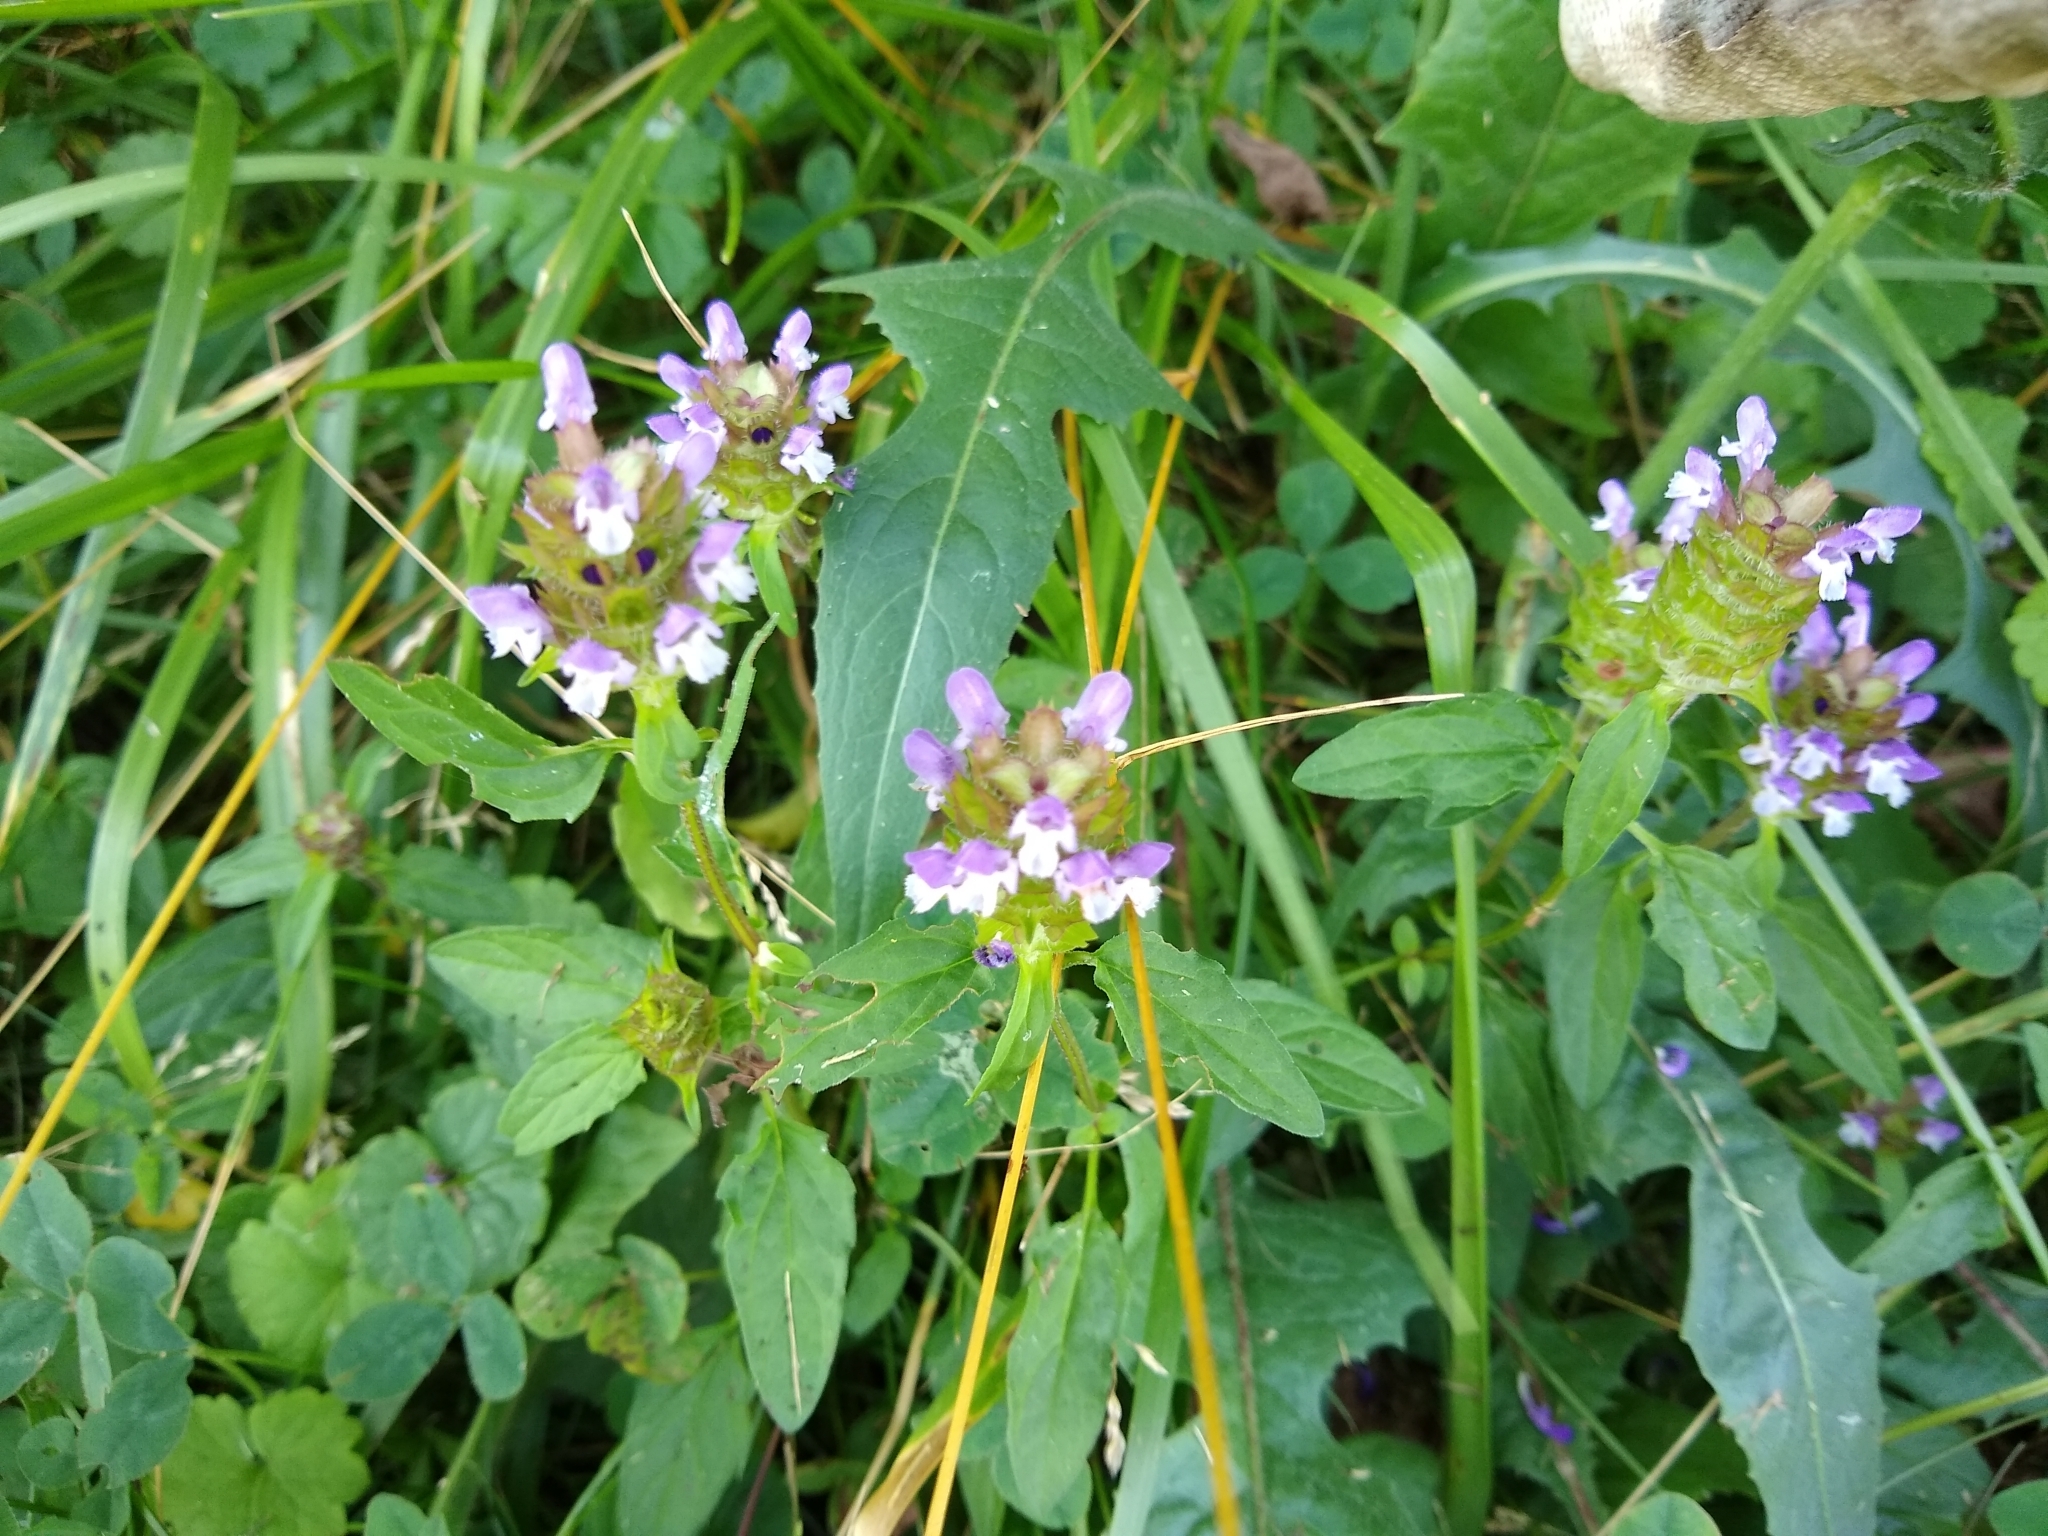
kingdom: Plantae
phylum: Tracheophyta
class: Magnoliopsida
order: Lamiales
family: Lamiaceae
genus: Prunella
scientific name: Prunella vulgaris
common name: Heal-all
